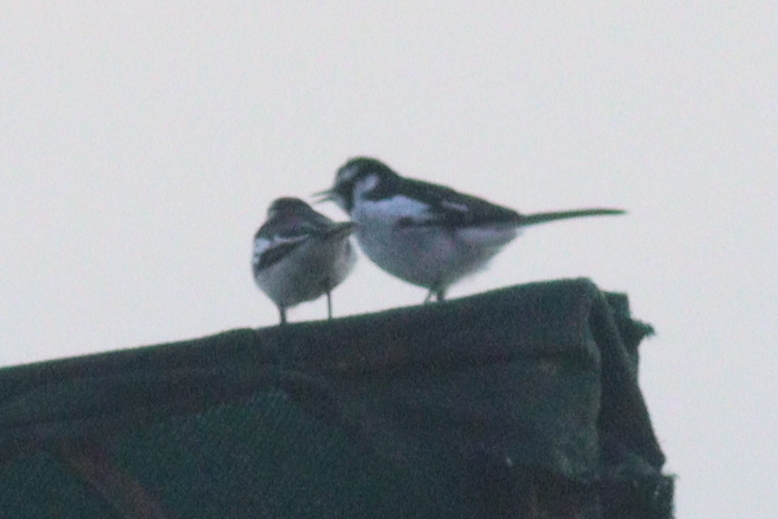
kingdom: Animalia
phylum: Chordata
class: Aves
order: Passeriformes
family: Motacillidae
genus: Motacilla
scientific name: Motacilla aguimp
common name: African pied wagtail
